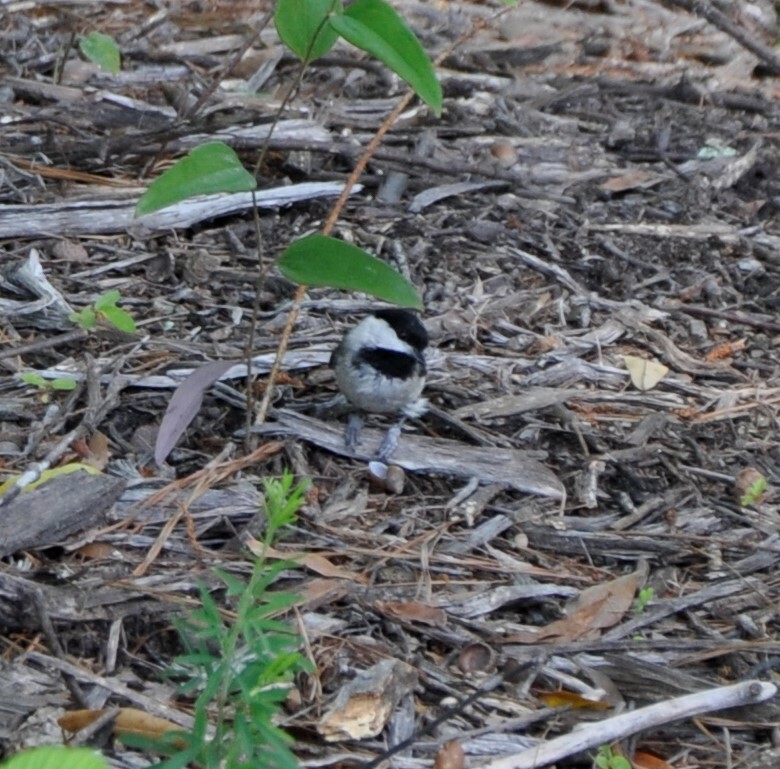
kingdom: Animalia
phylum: Chordata
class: Aves
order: Passeriformes
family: Paridae
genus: Poecile
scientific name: Poecile carolinensis
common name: Carolina chickadee
